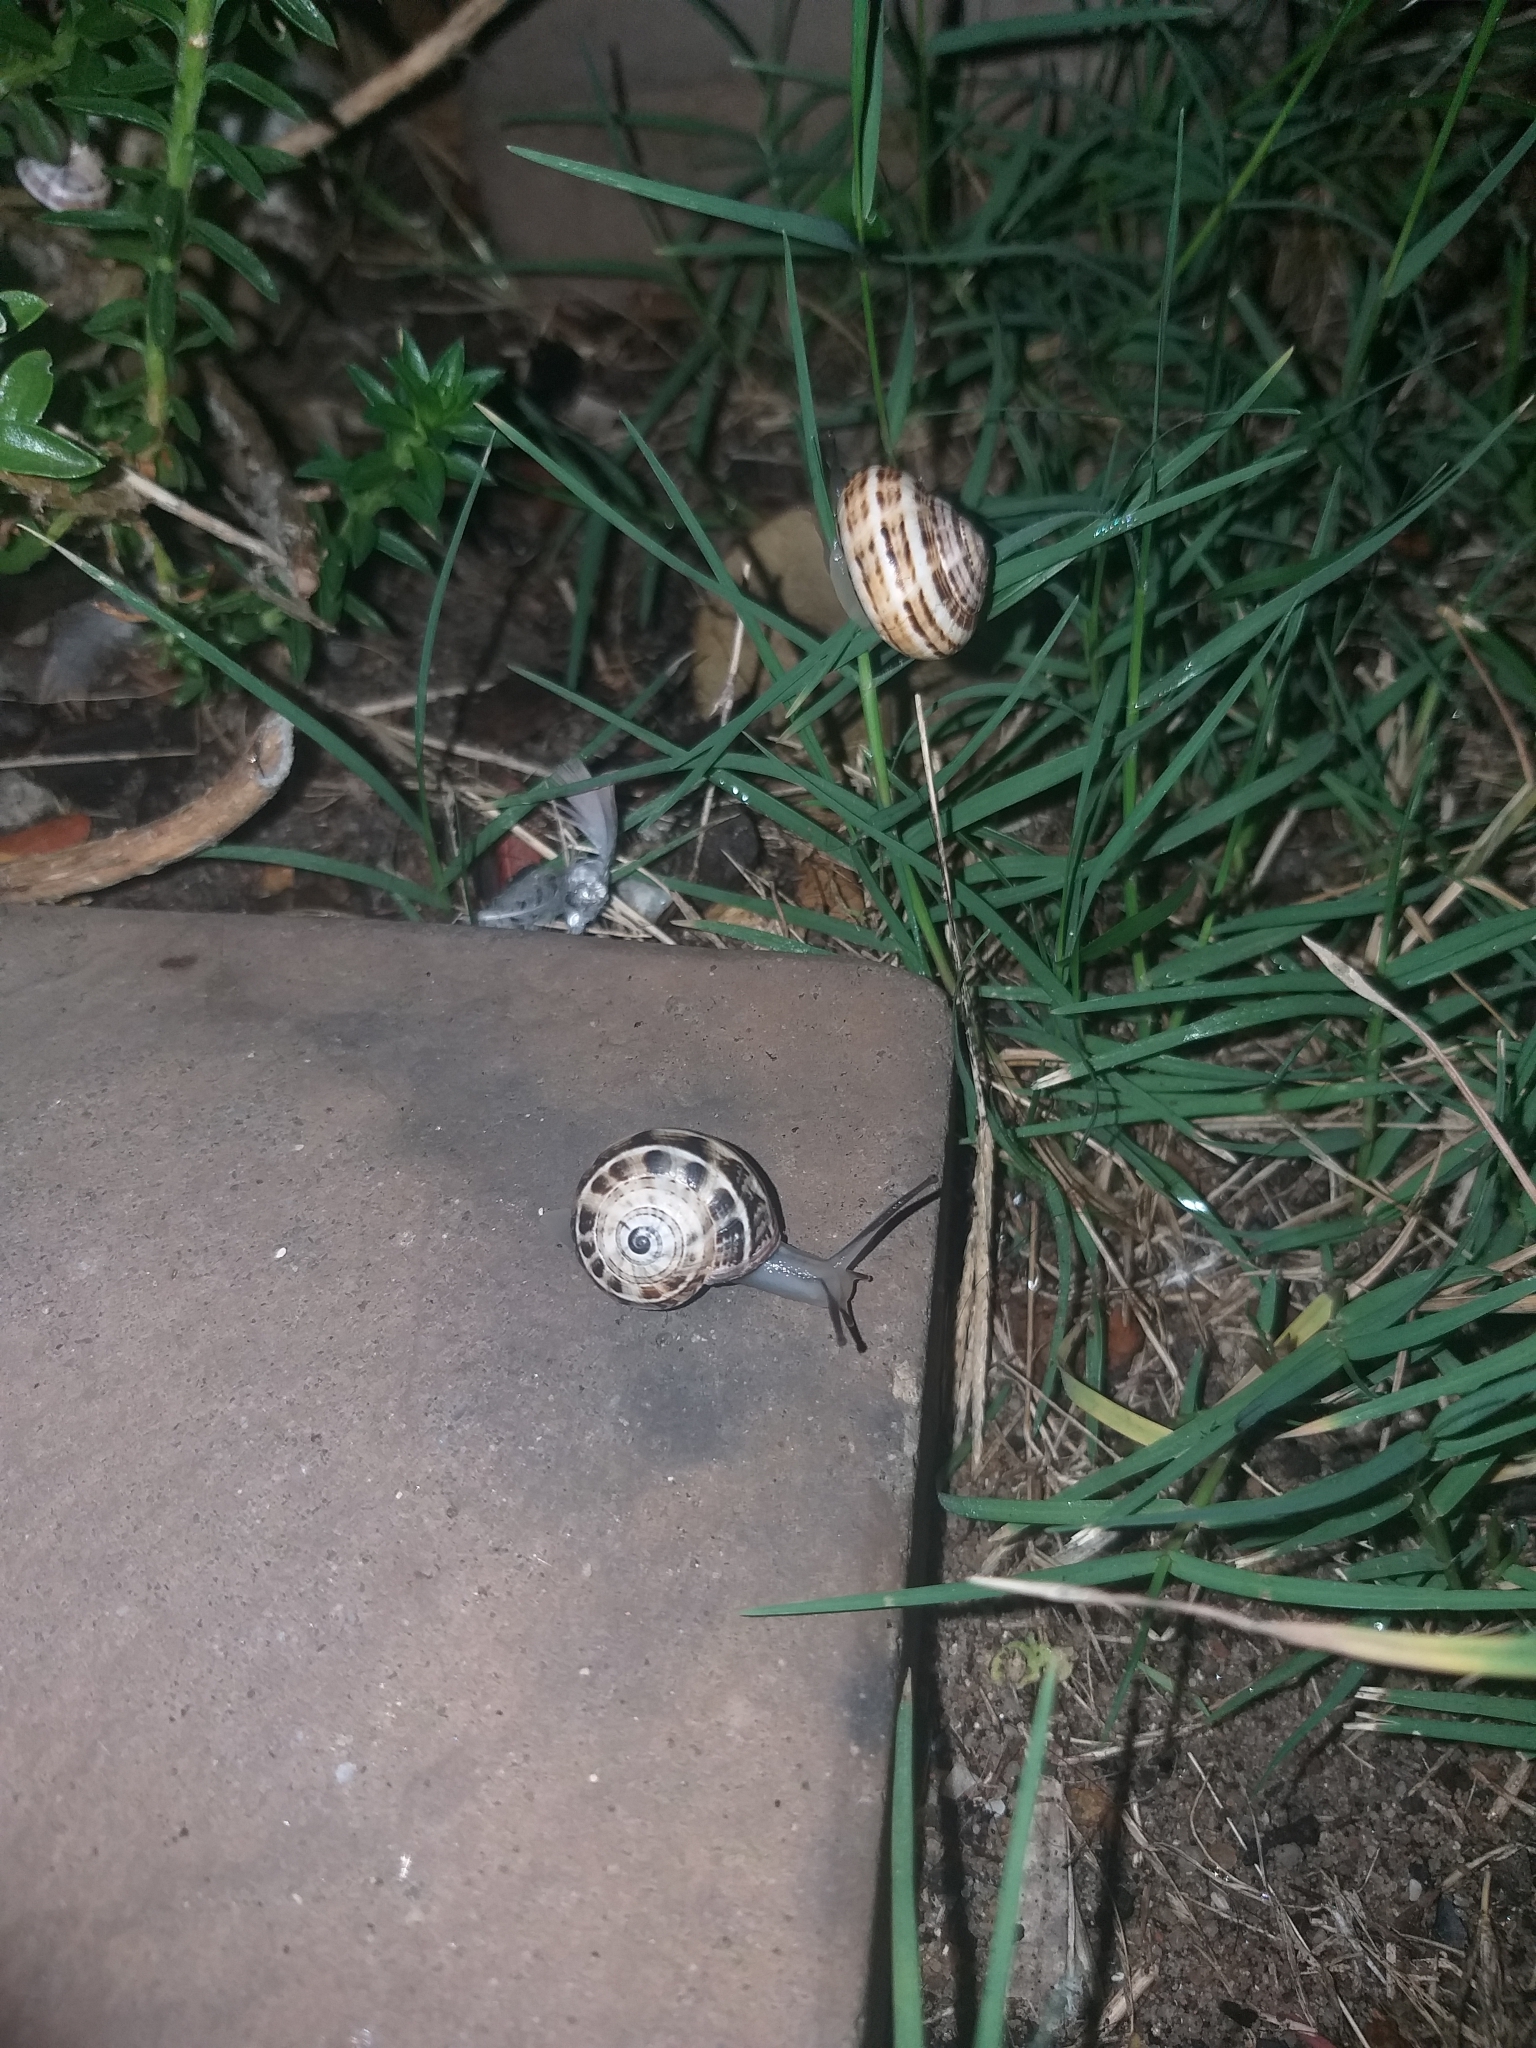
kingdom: Animalia
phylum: Mollusca
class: Gastropoda
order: Stylommatophora
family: Helicidae
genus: Theba
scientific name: Theba pisana
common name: White snail
